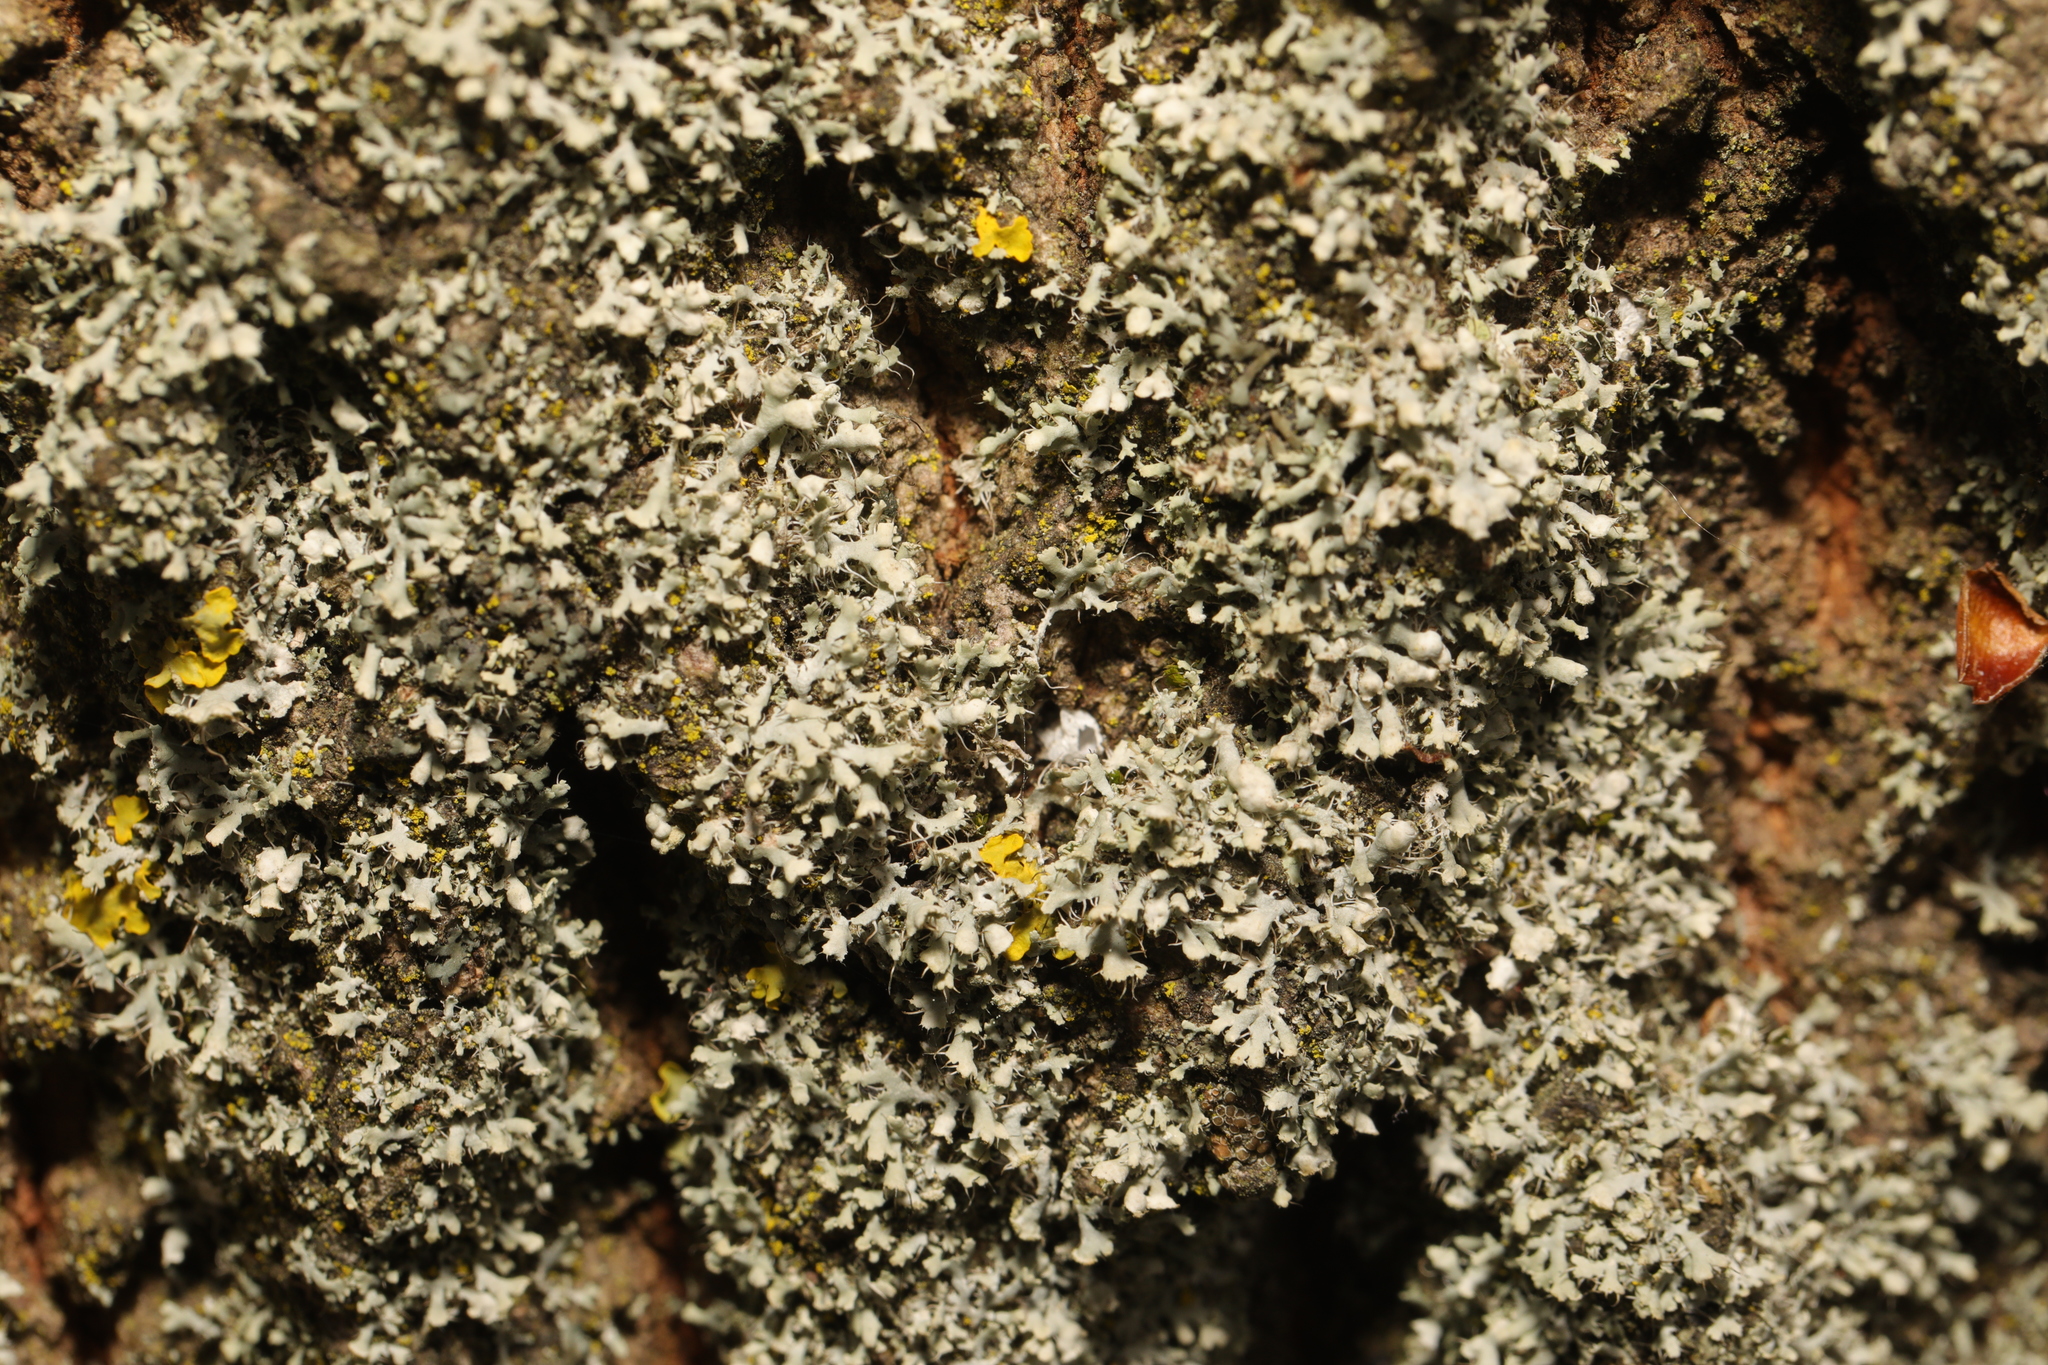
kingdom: Fungi
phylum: Ascomycota
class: Lecanoromycetes
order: Caliciales
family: Physciaceae
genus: Physcia
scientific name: Physcia adscendens
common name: Hooded rosette lichen
